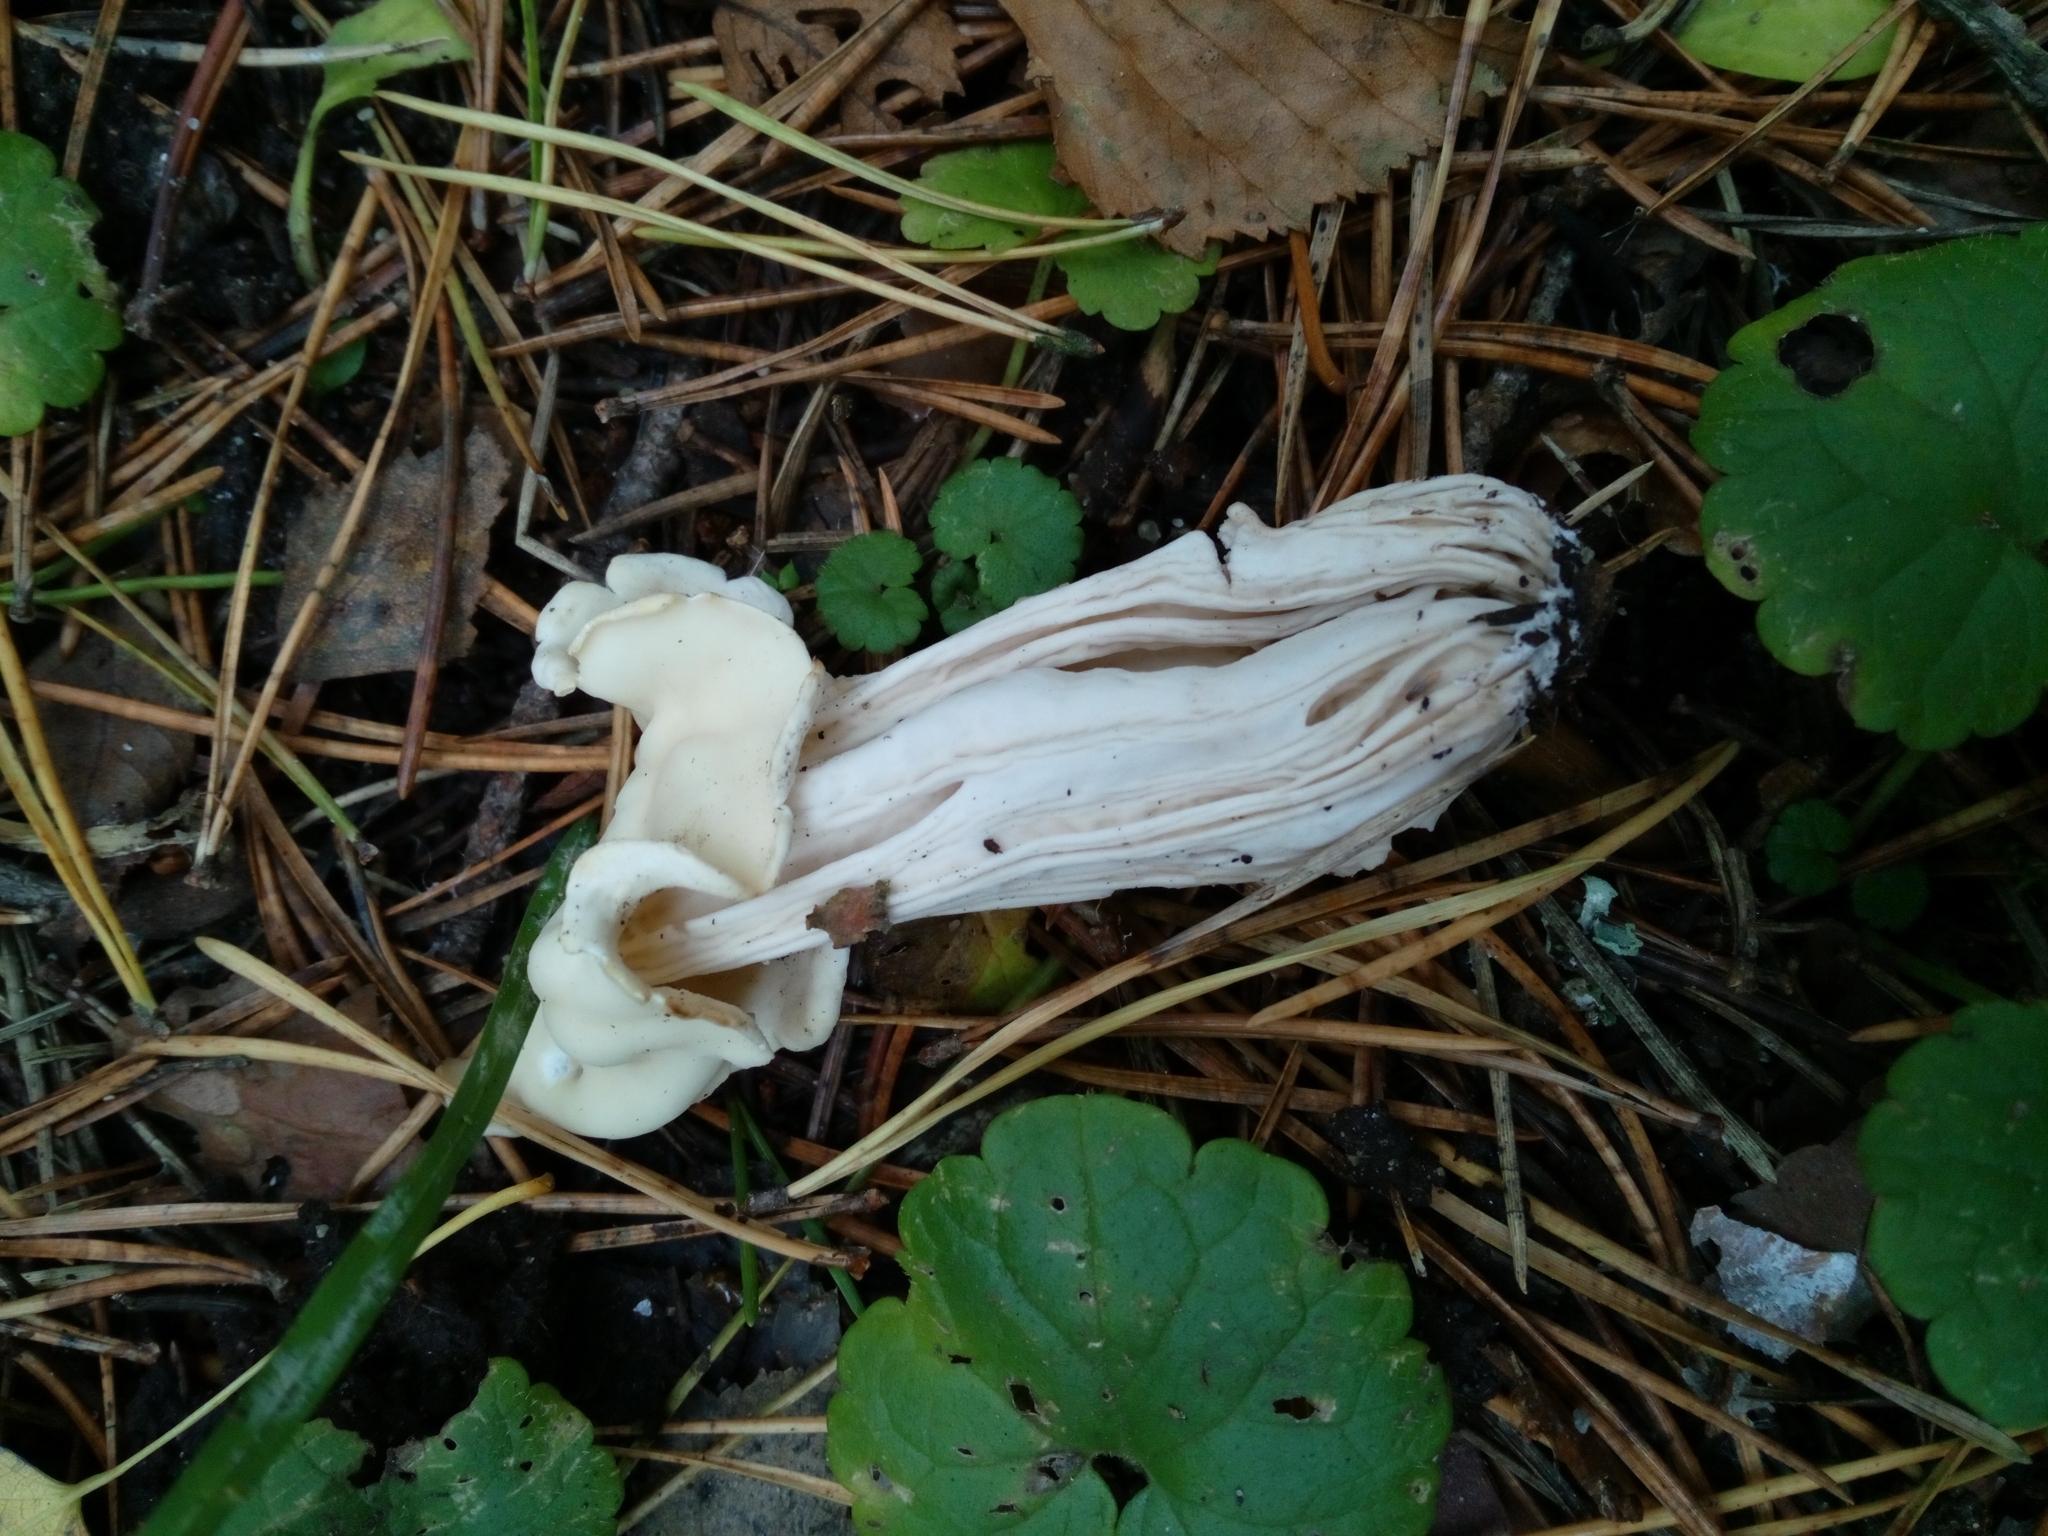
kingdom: Fungi
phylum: Ascomycota
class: Pezizomycetes
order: Pezizales
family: Helvellaceae
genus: Helvella
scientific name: Helvella crispa
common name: White saddle
